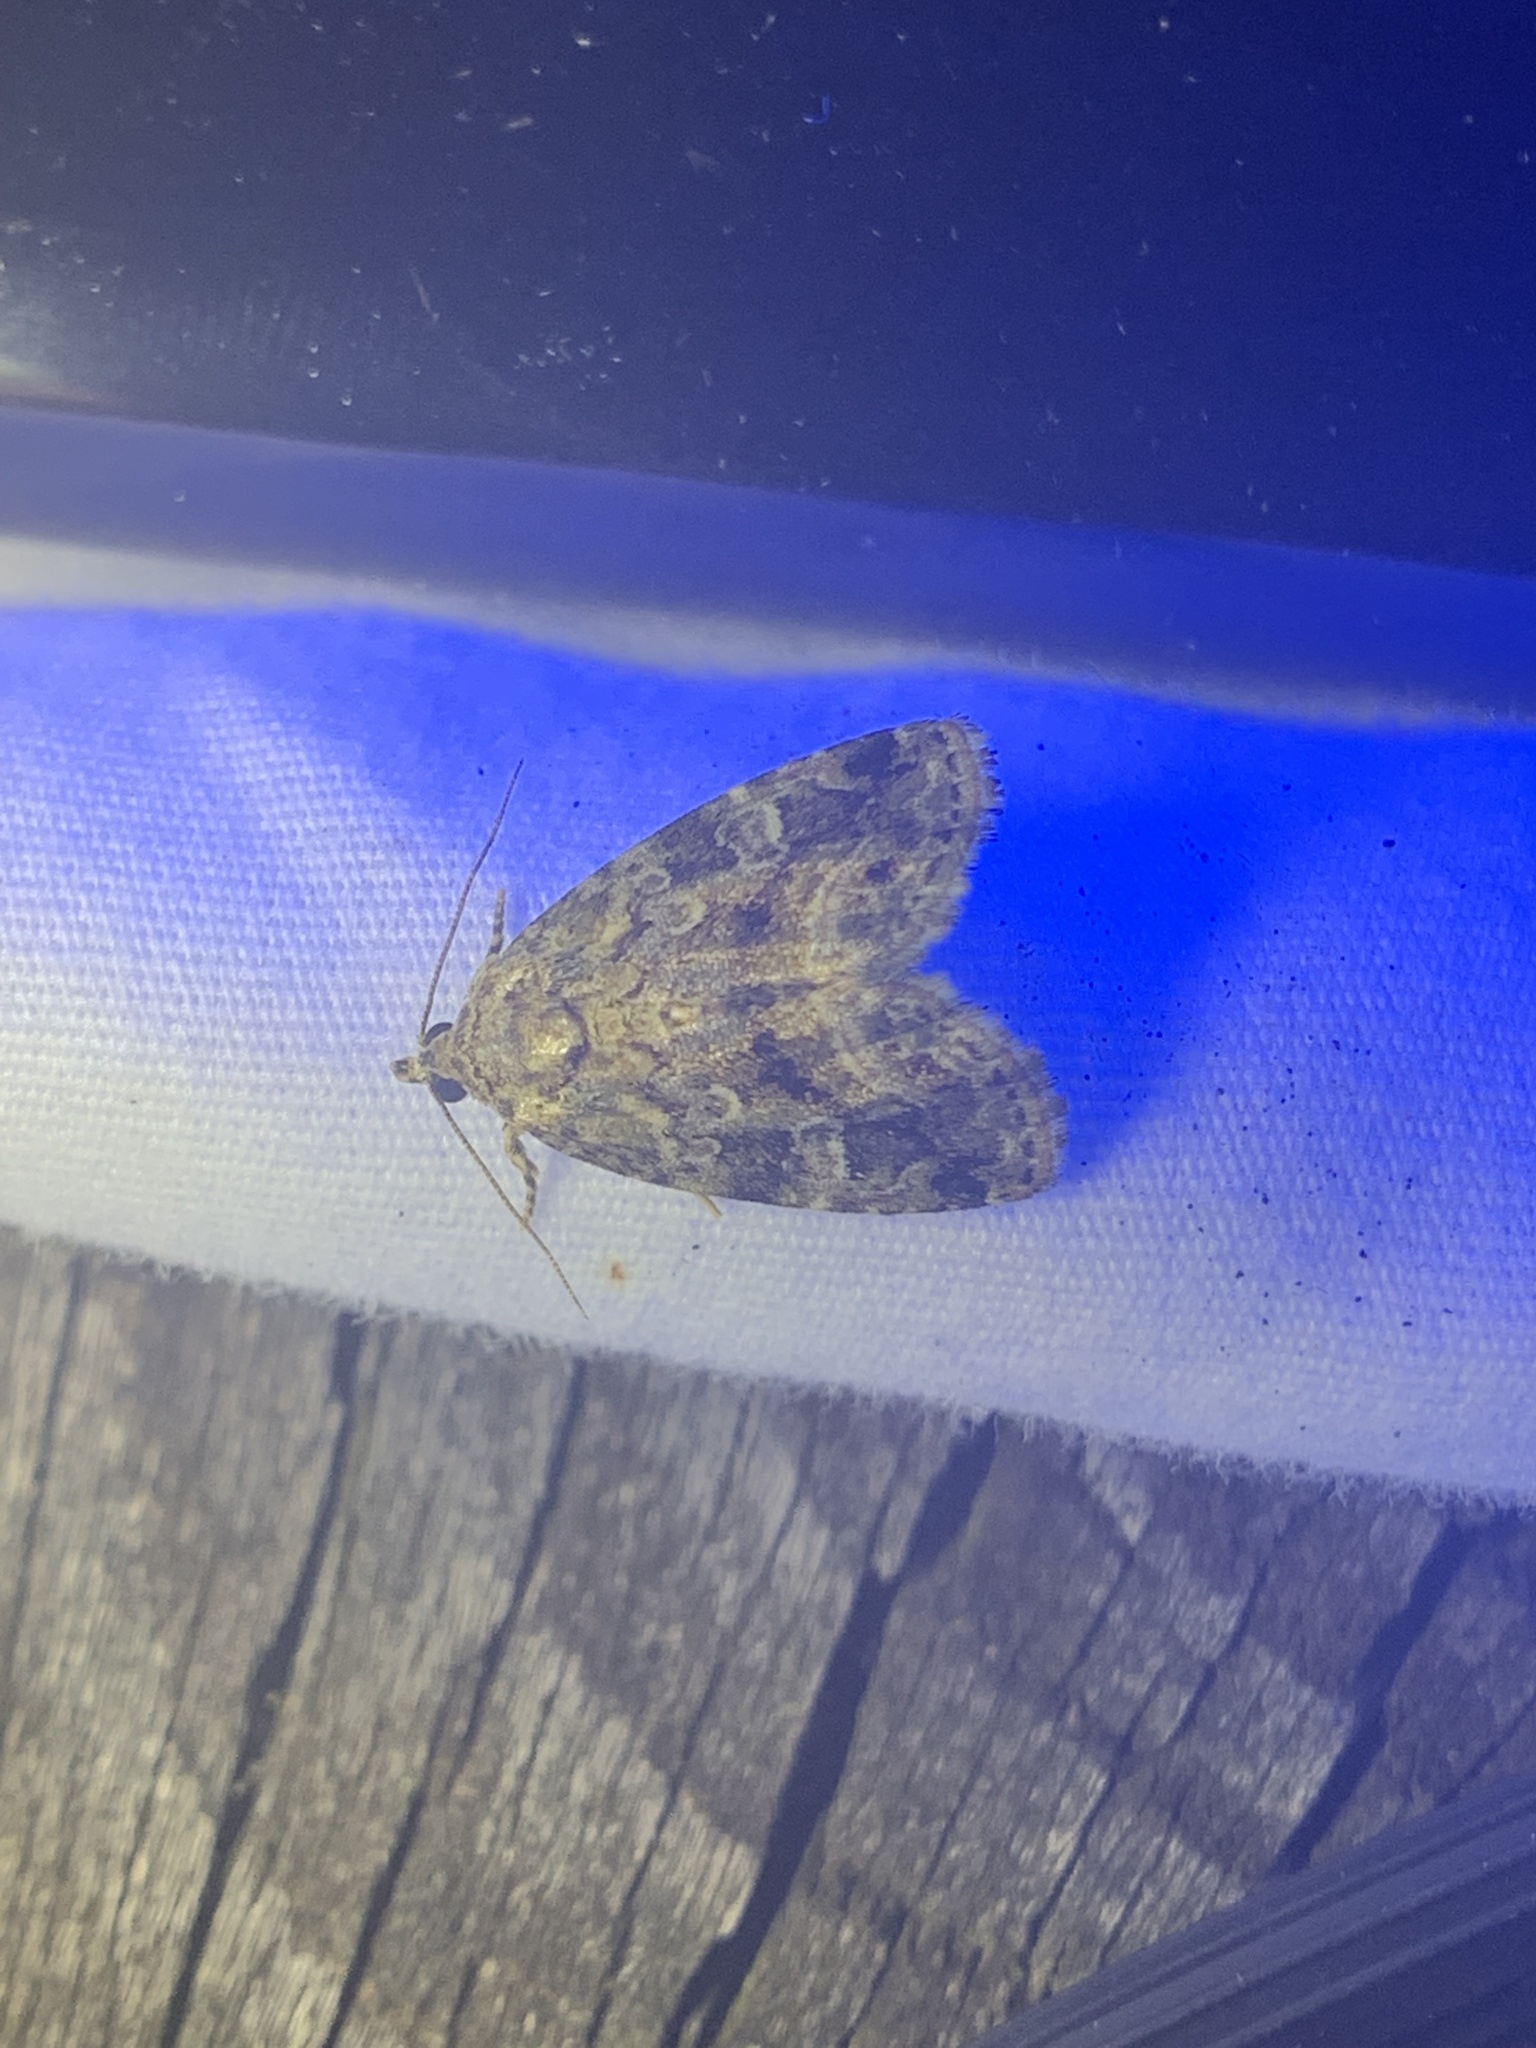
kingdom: Animalia
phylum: Arthropoda
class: Insecta
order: Lepidoptera
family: Noctuidae
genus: Protodeltote
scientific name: Protodeltote muscosula
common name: Large mossy glyph
